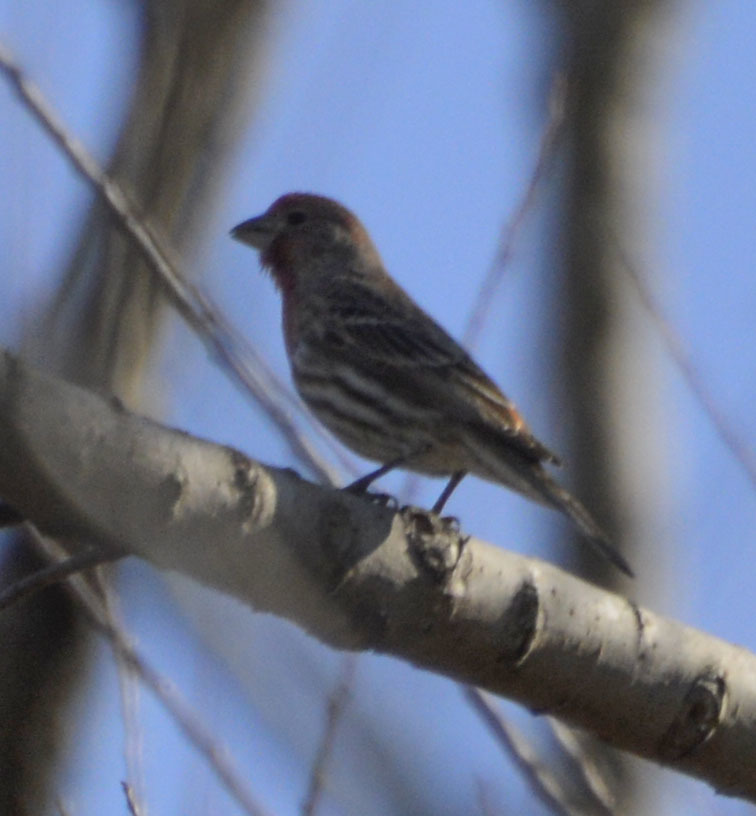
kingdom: Animalia
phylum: Chordata
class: Aves
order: Passeriformes
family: Fringillidae
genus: Haemorhous
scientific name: Haemorhous mexicanus
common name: House finch
